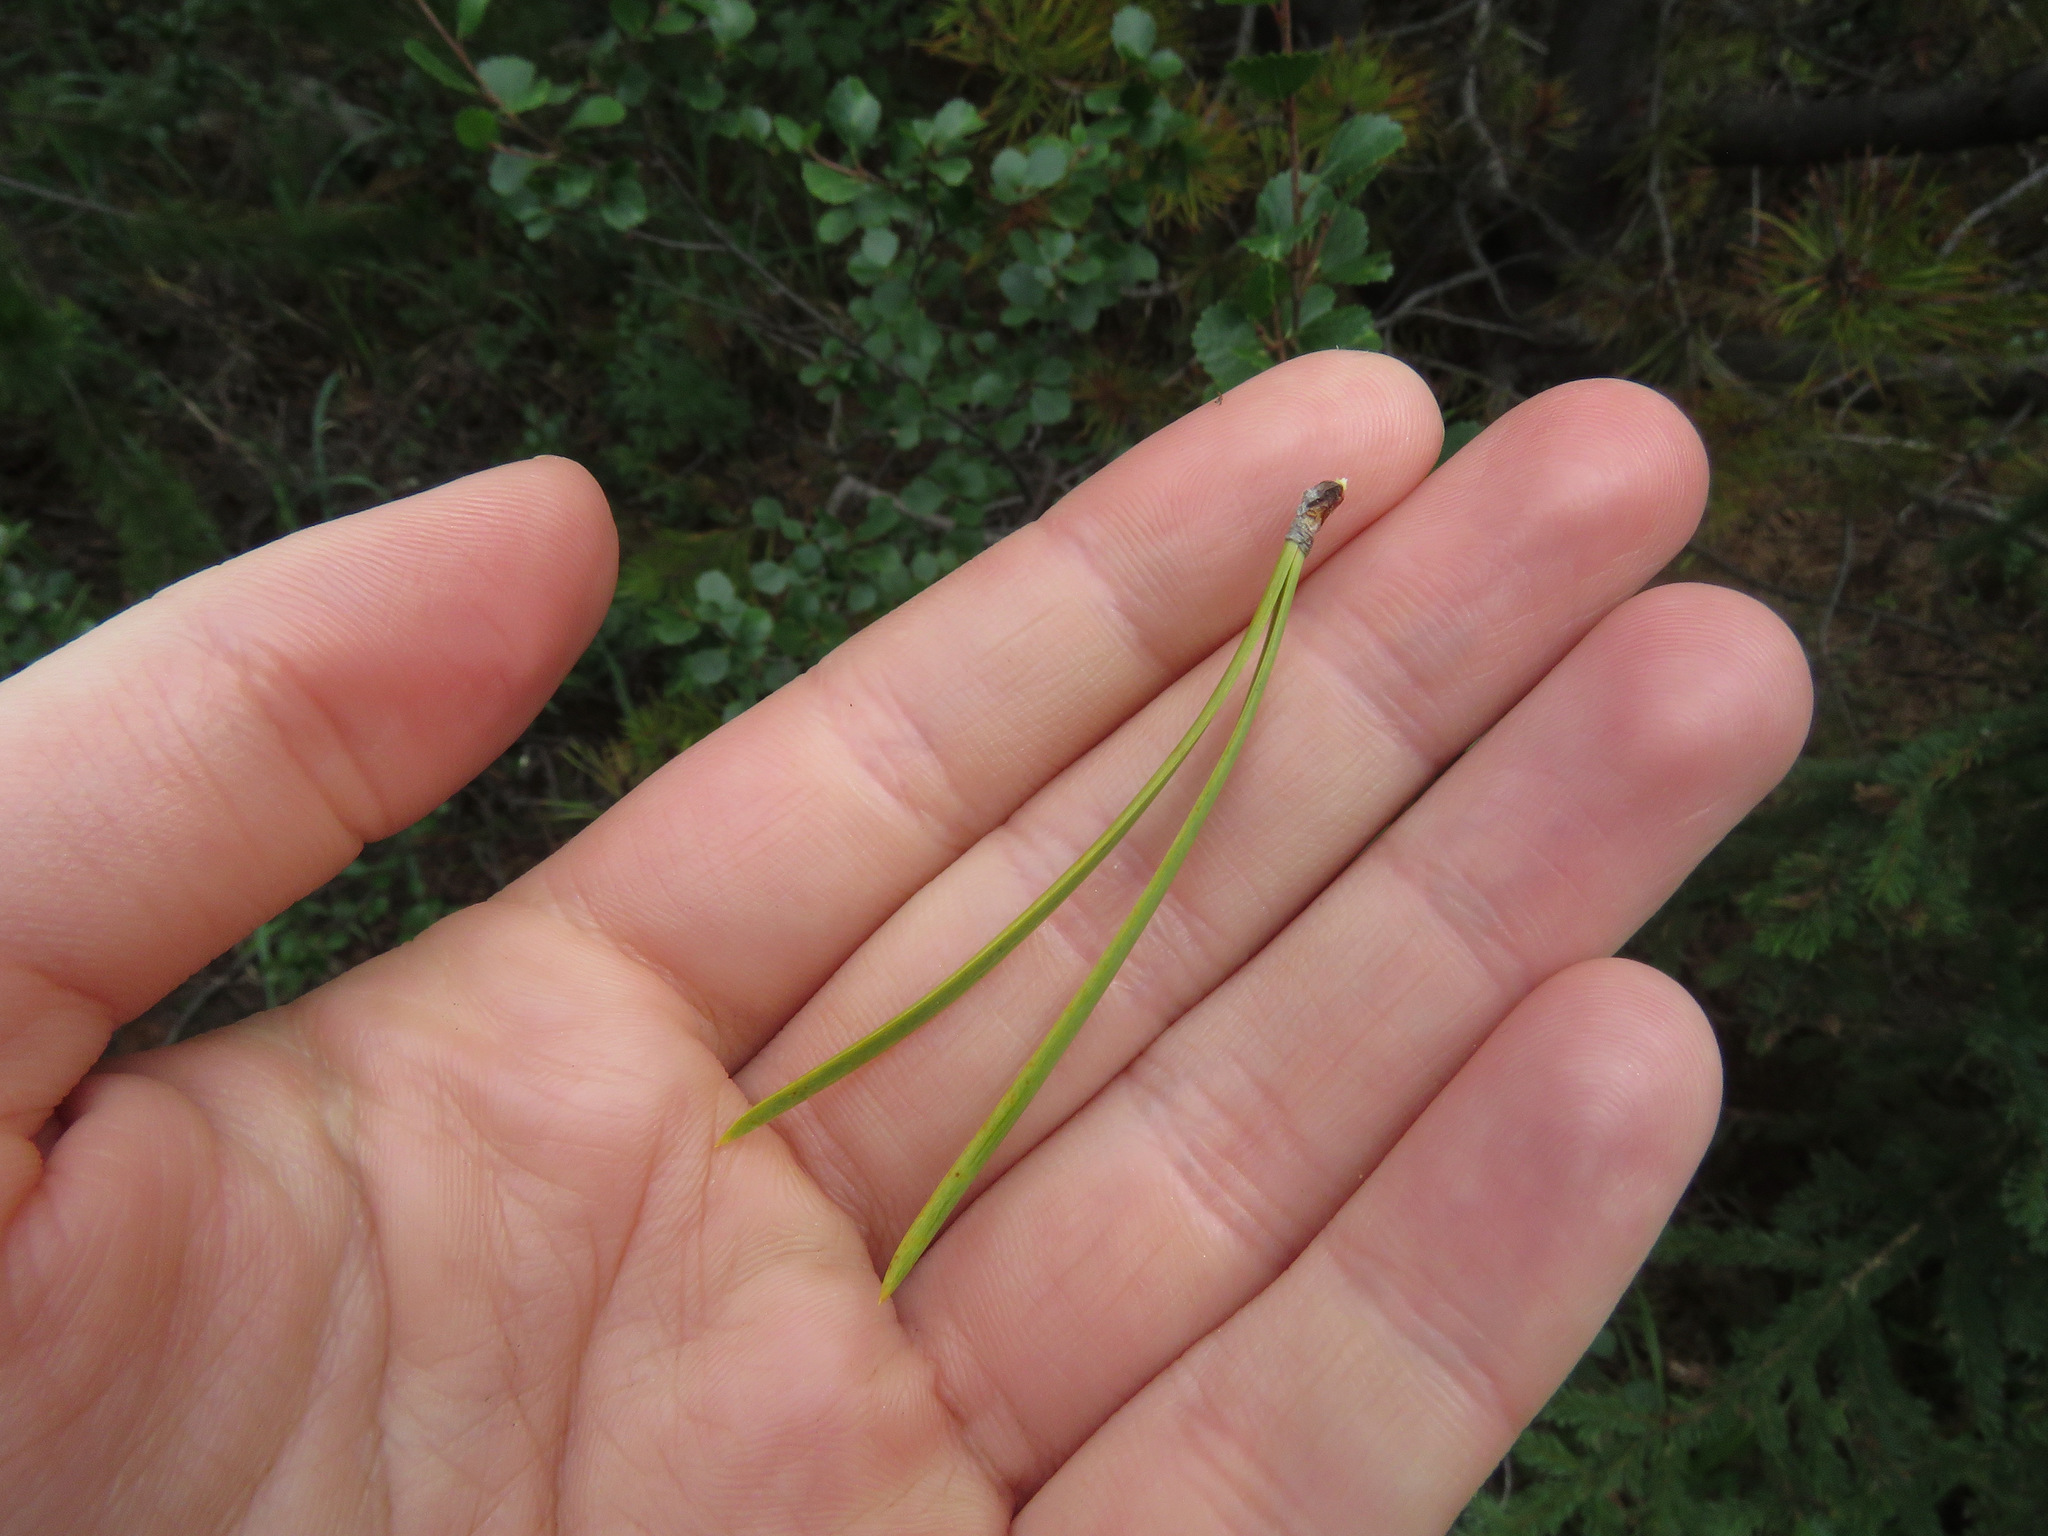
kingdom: Plantae
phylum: Tracheophyta
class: Pinopsida
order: Pinales
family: Pinaceae
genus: Pinus
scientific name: Pinus contorta
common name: Lodgepole pine
